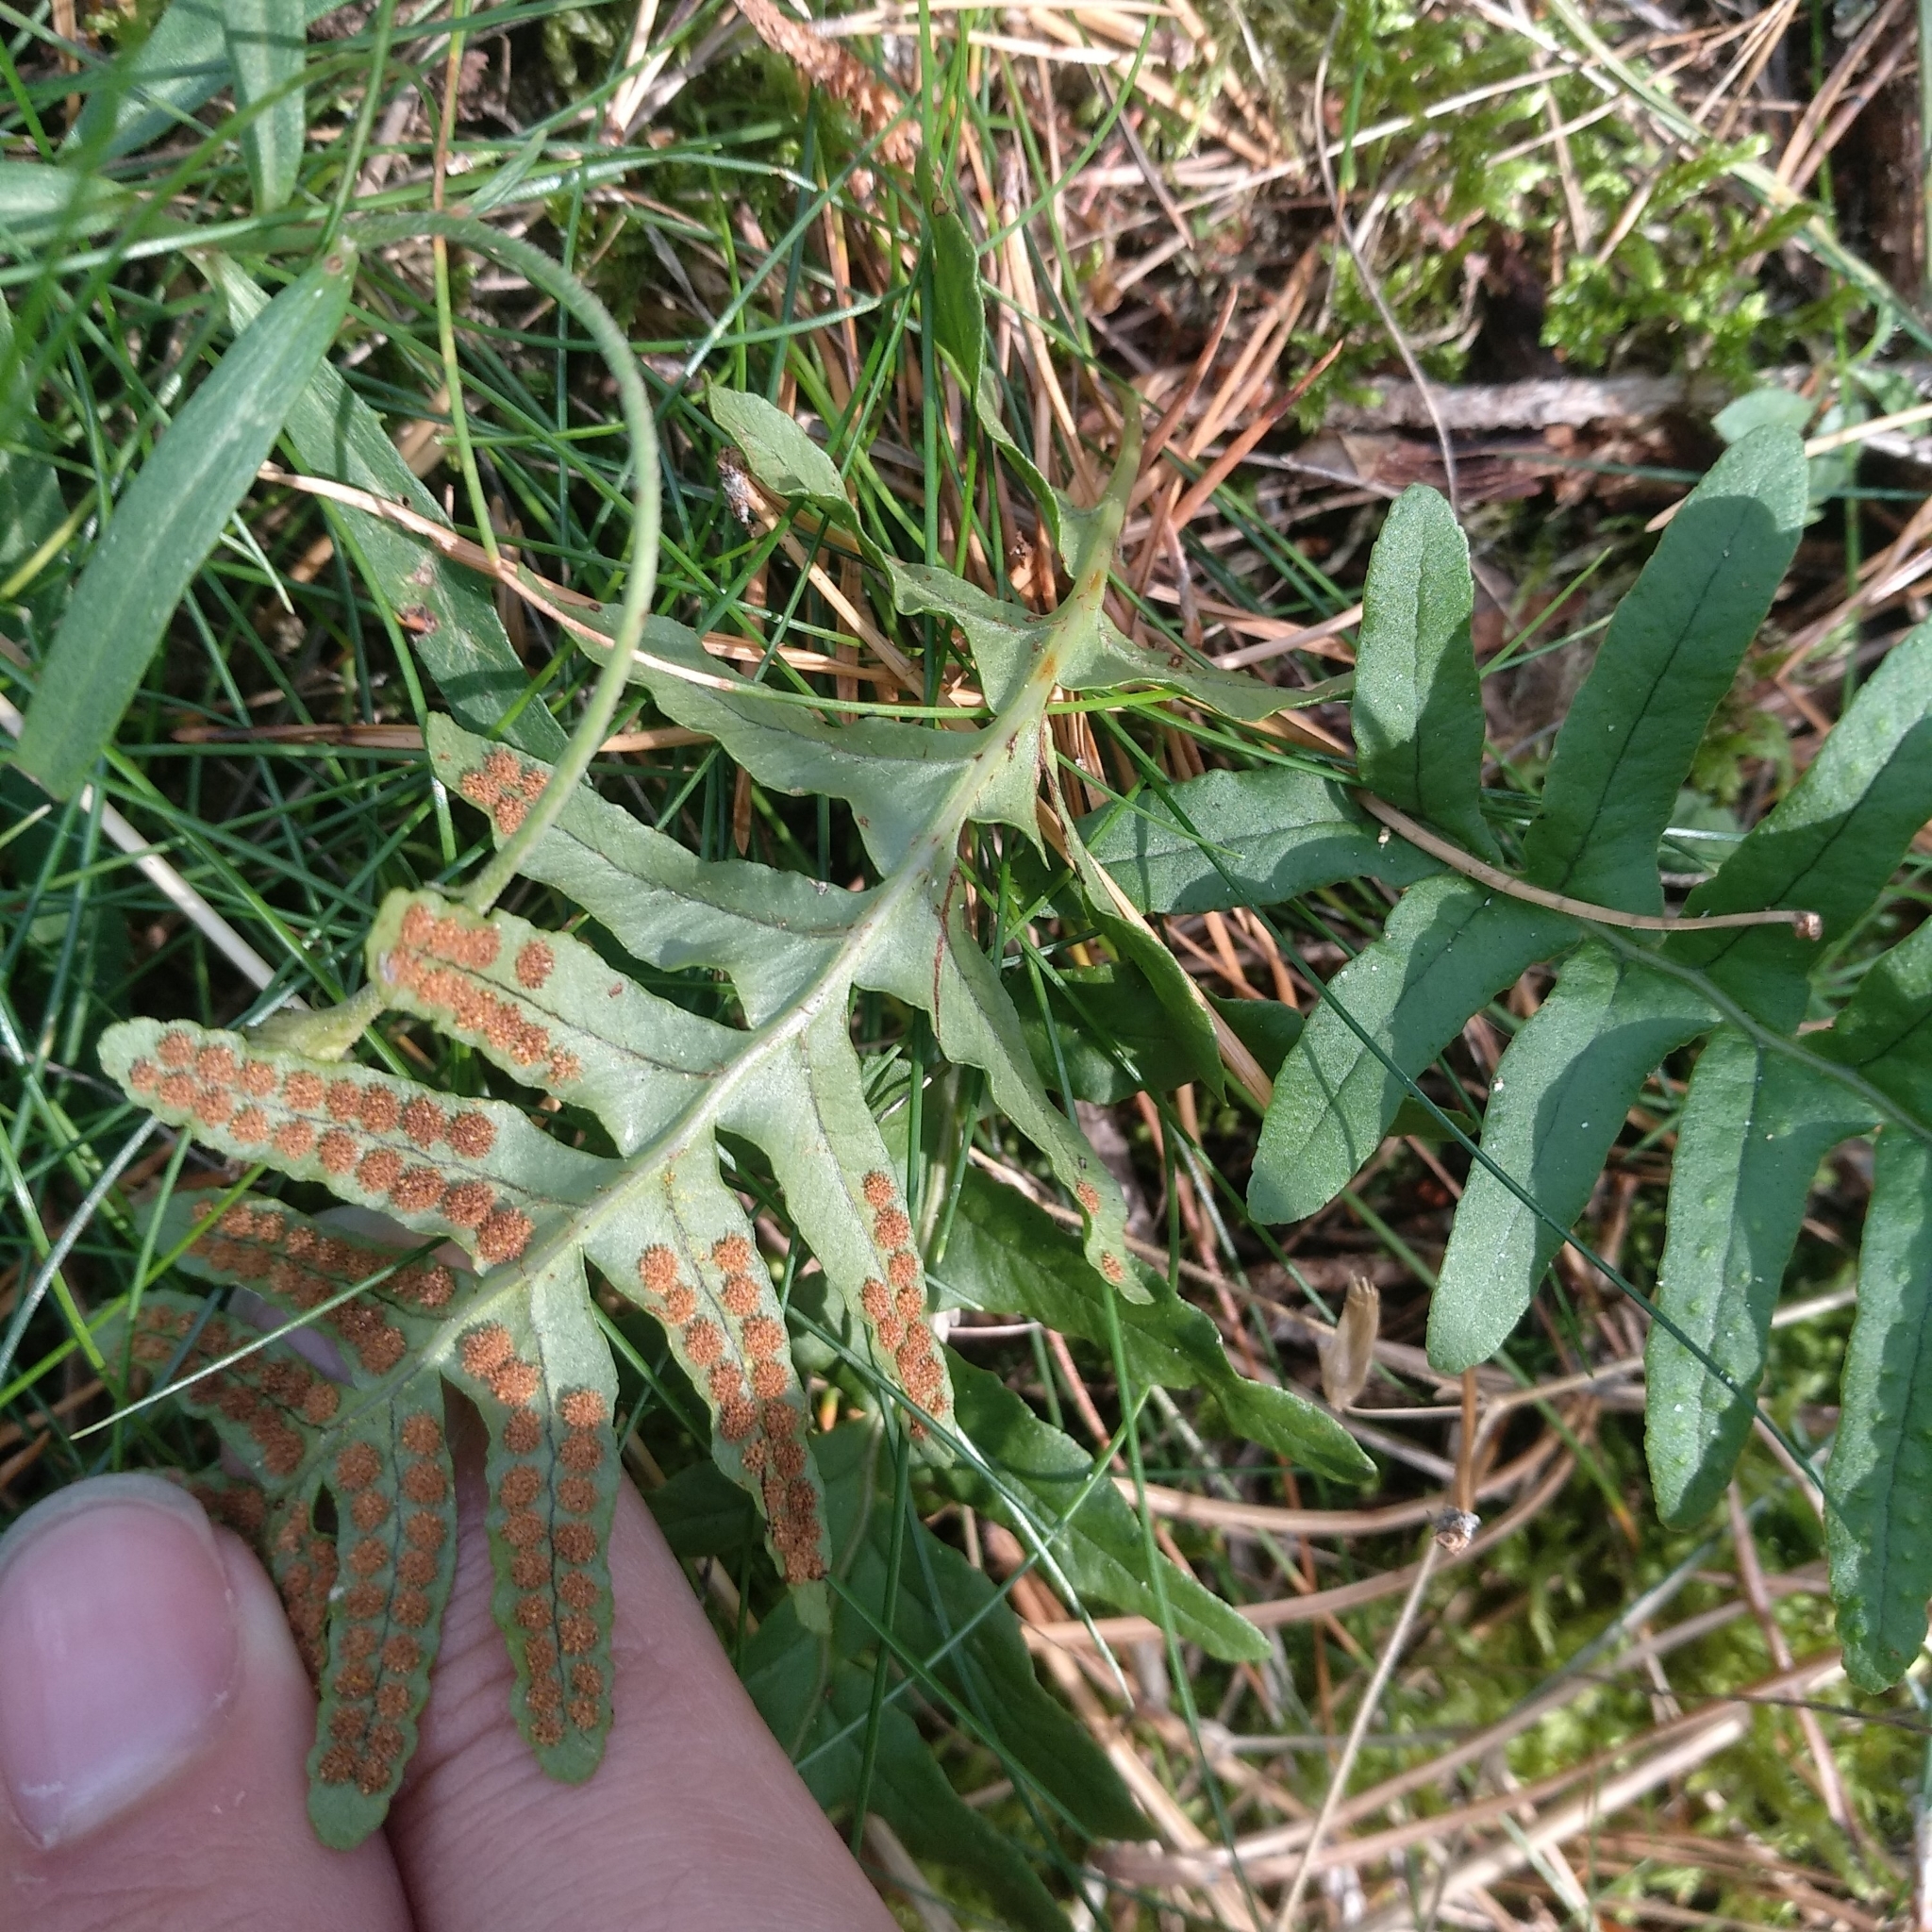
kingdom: Plantae
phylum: Tracheophyta
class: Polypodiopsida
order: Polypodiales
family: Polypodiaceae
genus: Polypodium
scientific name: Polypodium vulgare
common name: Common polypody
